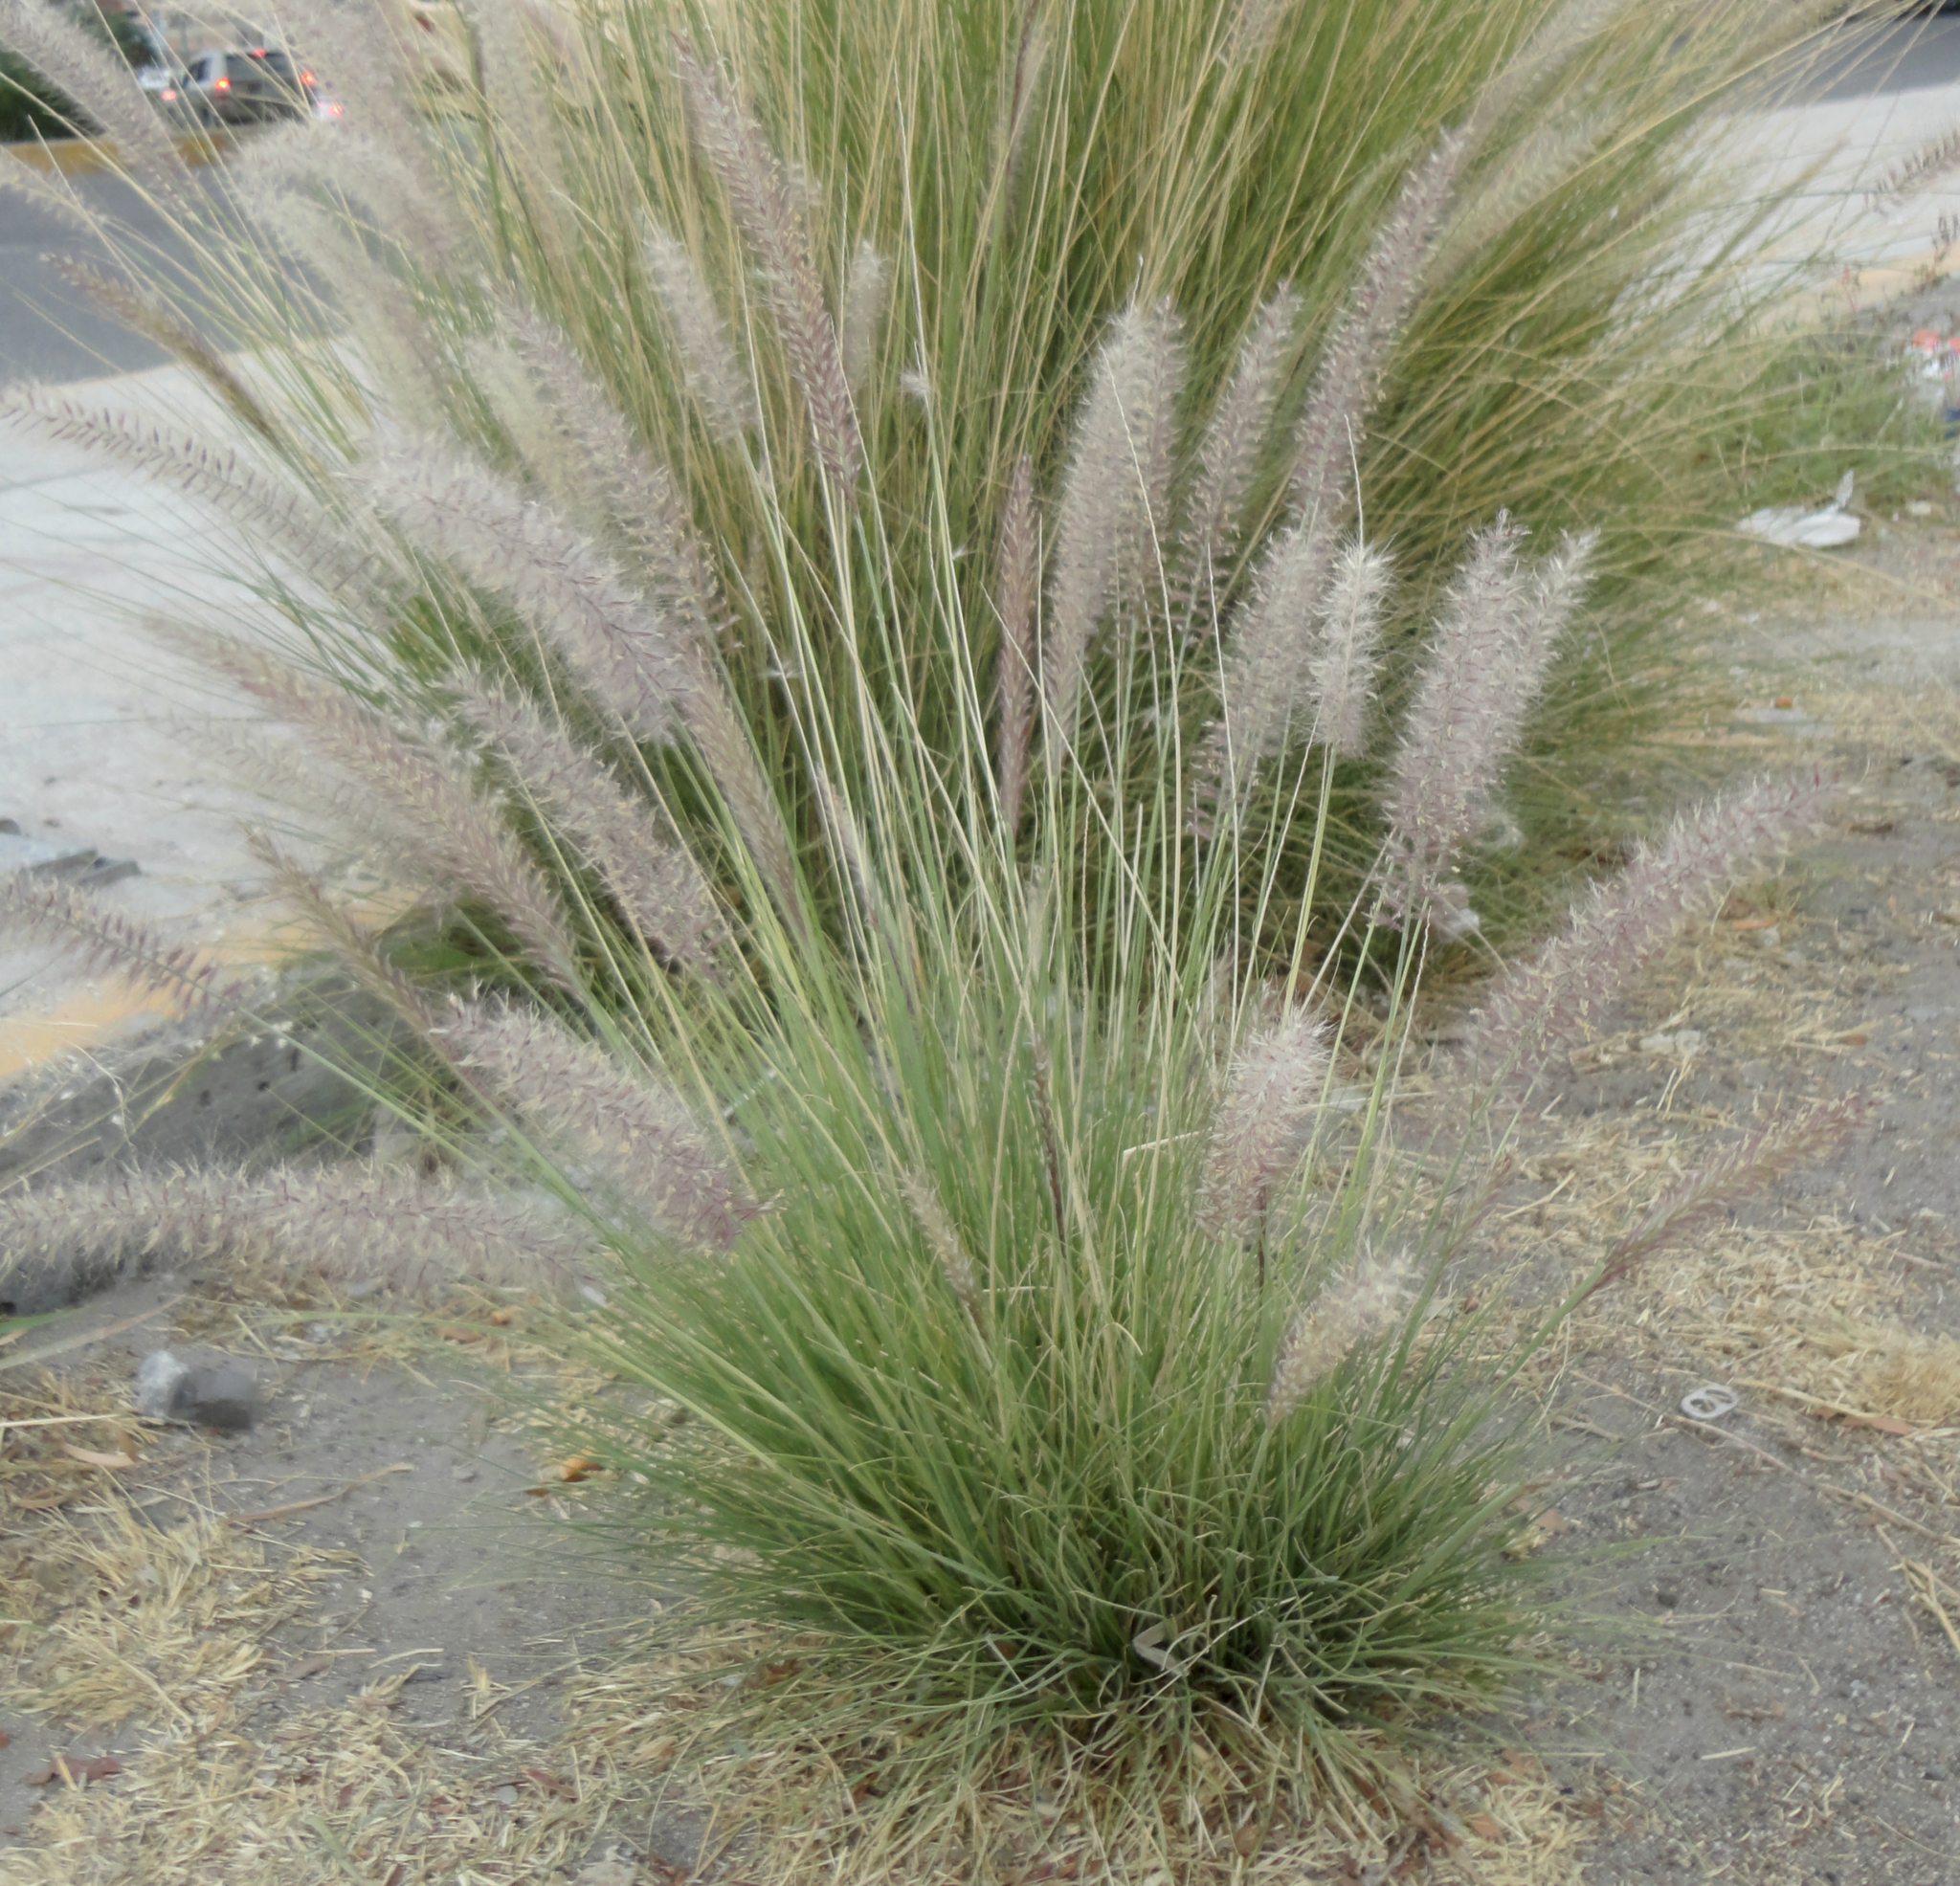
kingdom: Plantae
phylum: Tracheophyta
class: Liliopsida
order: Poales
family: Poaceae
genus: Cenchrus
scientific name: Cenchrus setaceus
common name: Crimson fountaingrass
